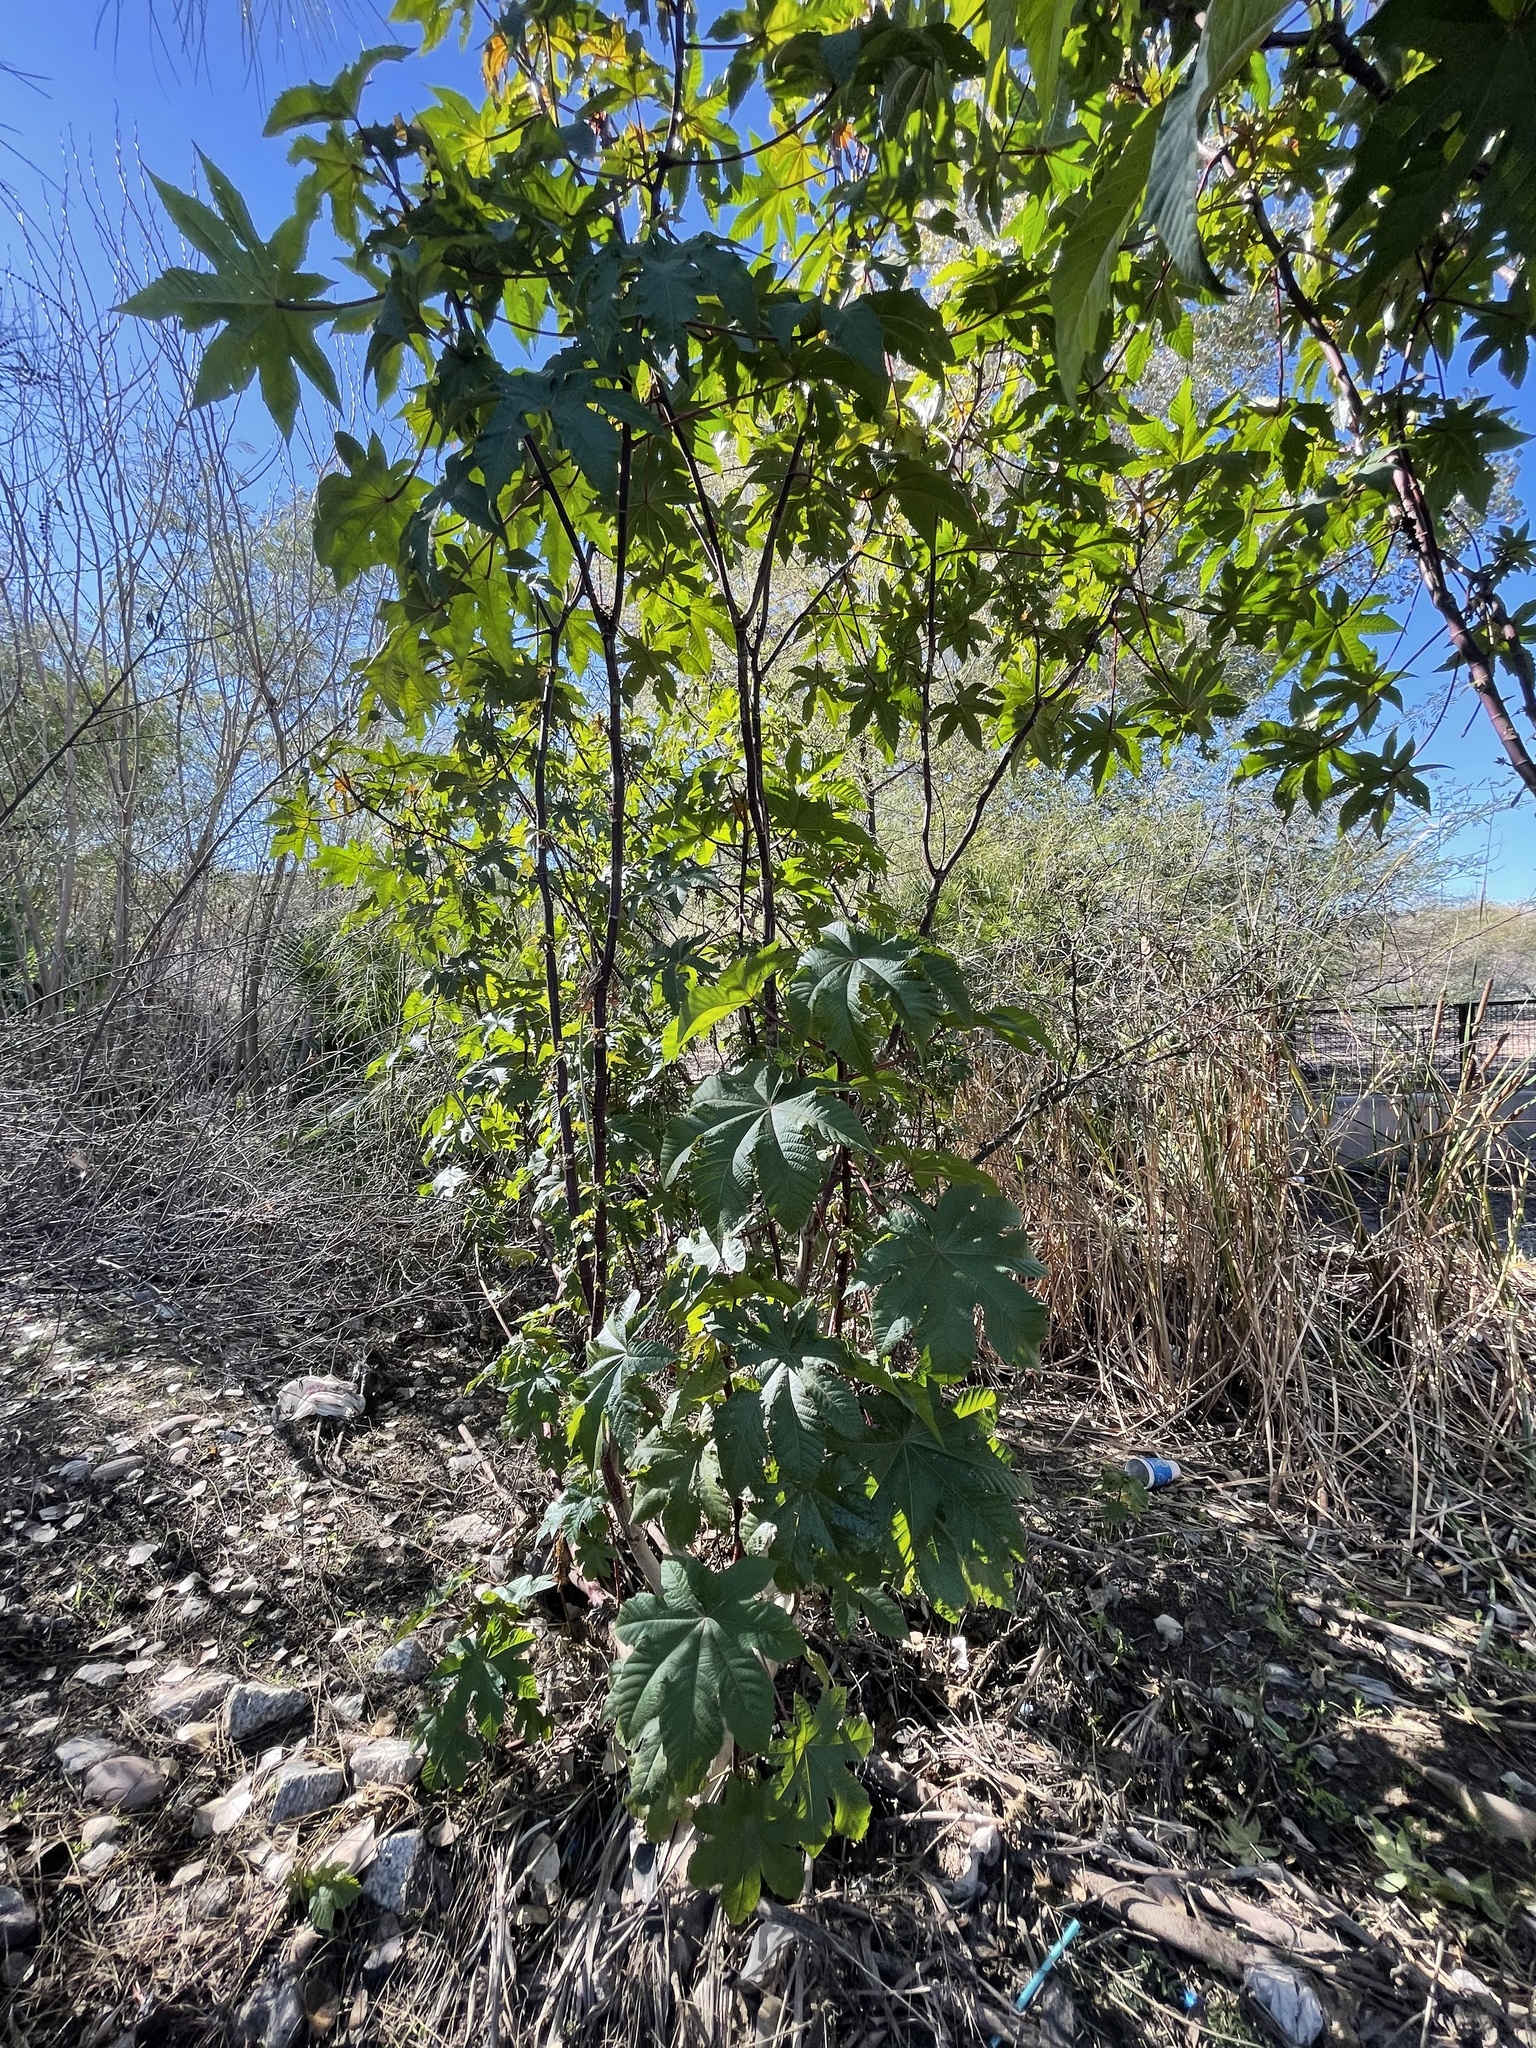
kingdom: Plantae
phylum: Tracheophyta
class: Magnoliopsida
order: Malpighiales
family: Euphorbiaceae
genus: Ricinus
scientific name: Ricinus communis
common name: Castor-oil-plant
